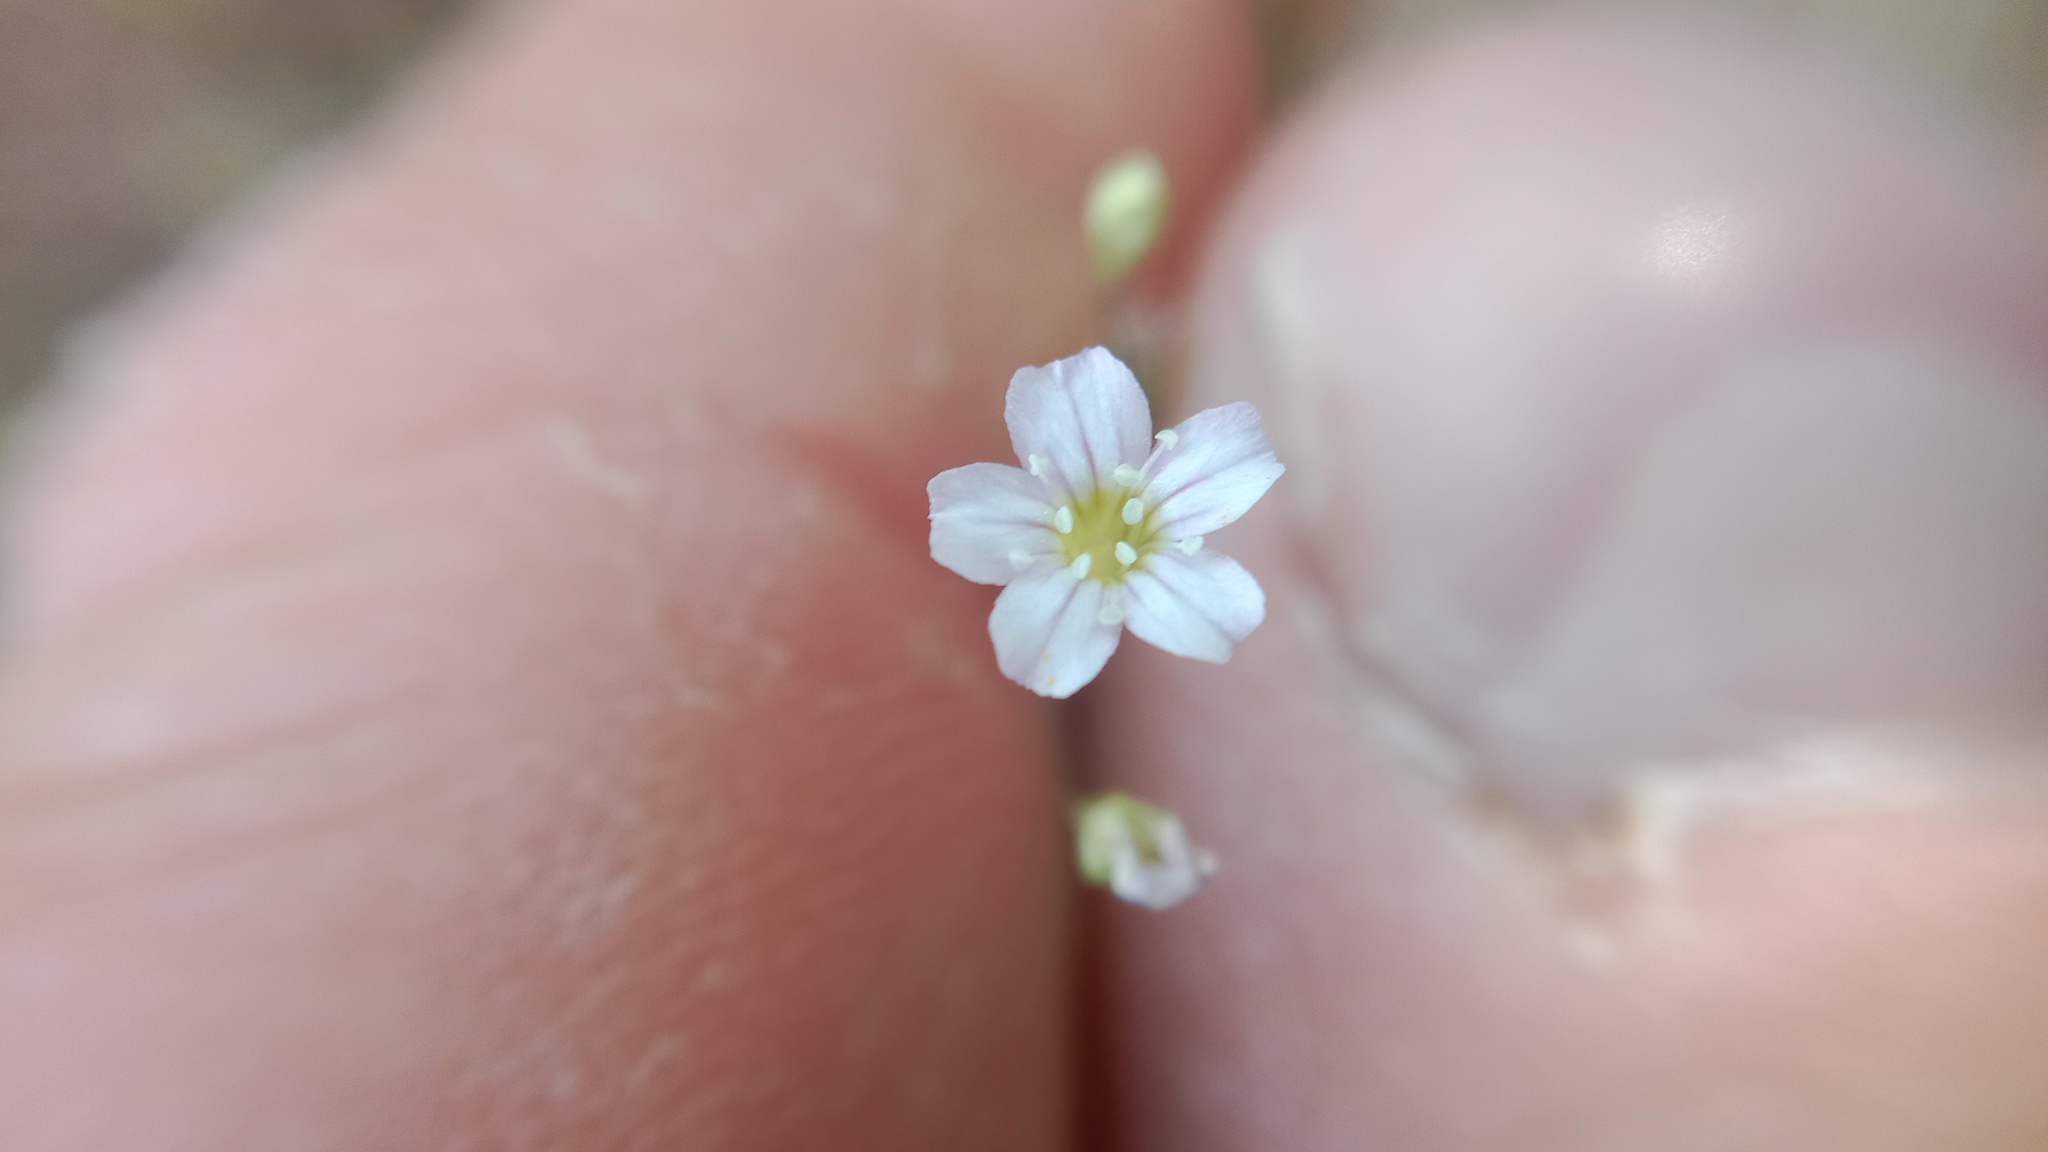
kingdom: Plantae
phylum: Tracheophyta
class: Magnoliopsida
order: Caryophyllales
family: Caryophyllaceae
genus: Psammophiliella
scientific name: Psammophiliella muralis
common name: Cushion baby's-breath
